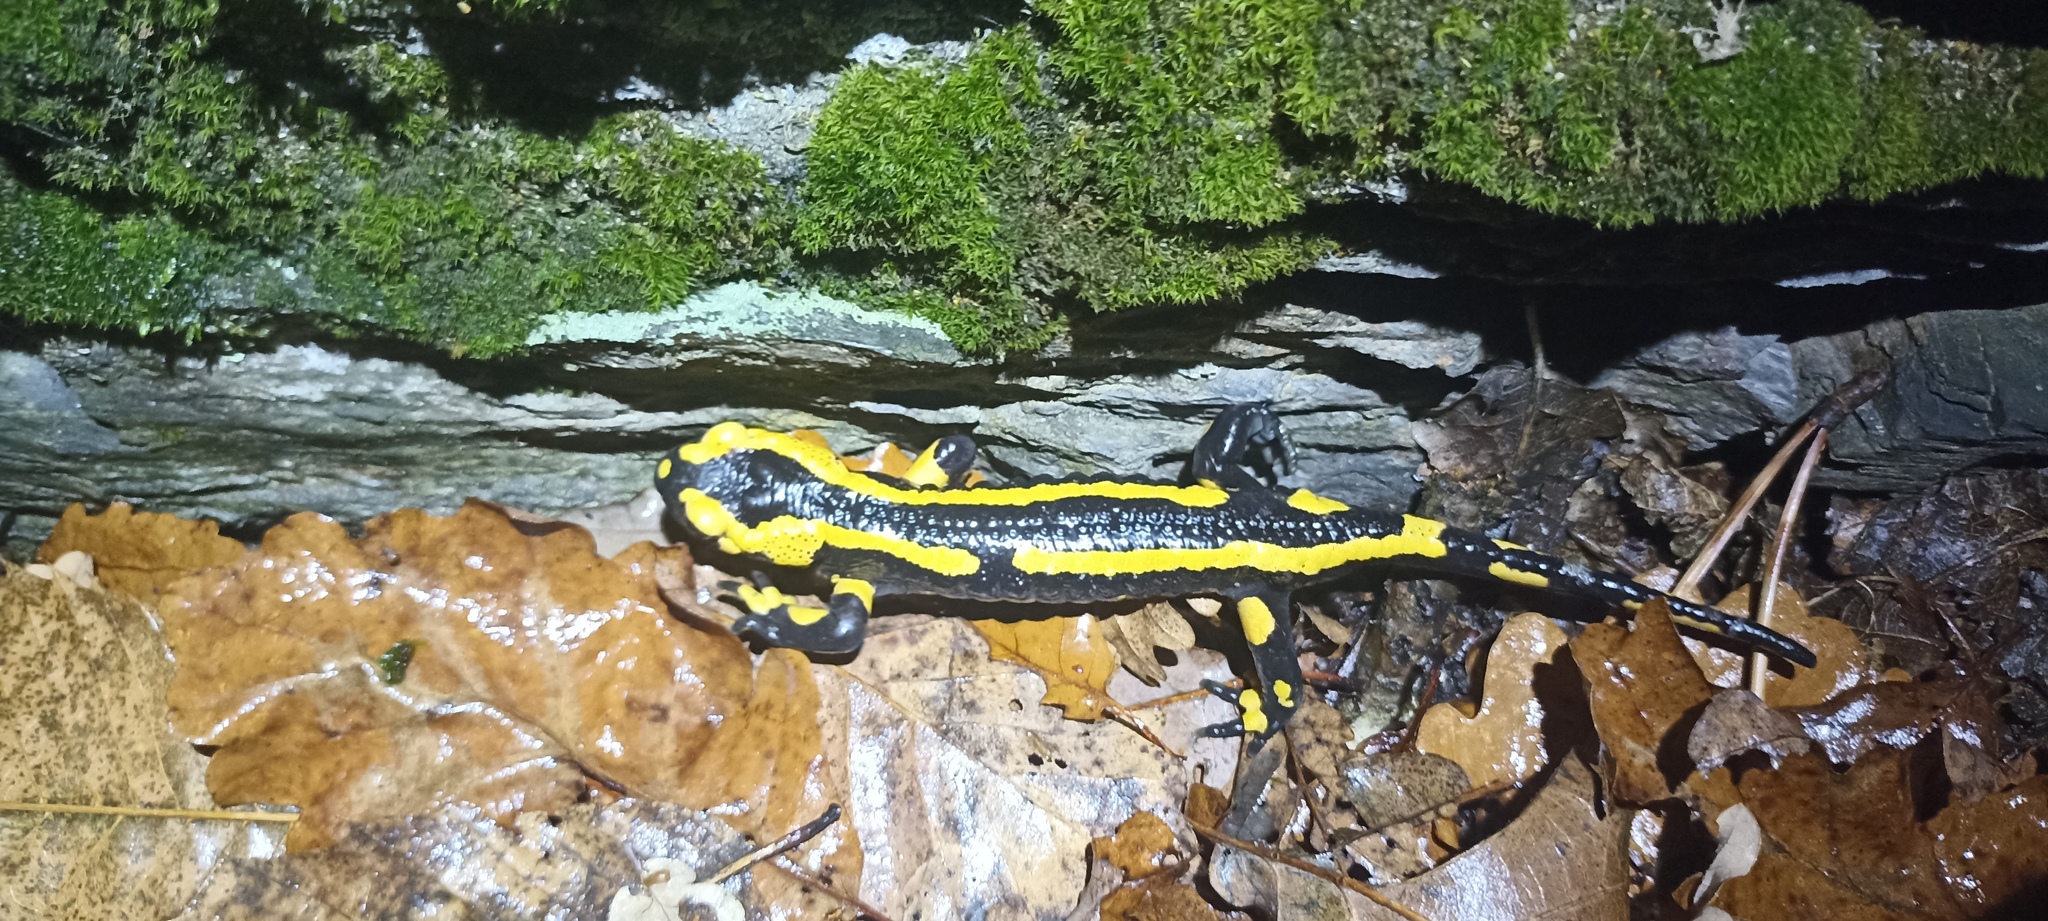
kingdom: Animalia
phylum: Chordata
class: Amphibia
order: Caudata
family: Salamandridae
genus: Salamandra
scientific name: Salamandra salamandra
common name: Fire salamander
